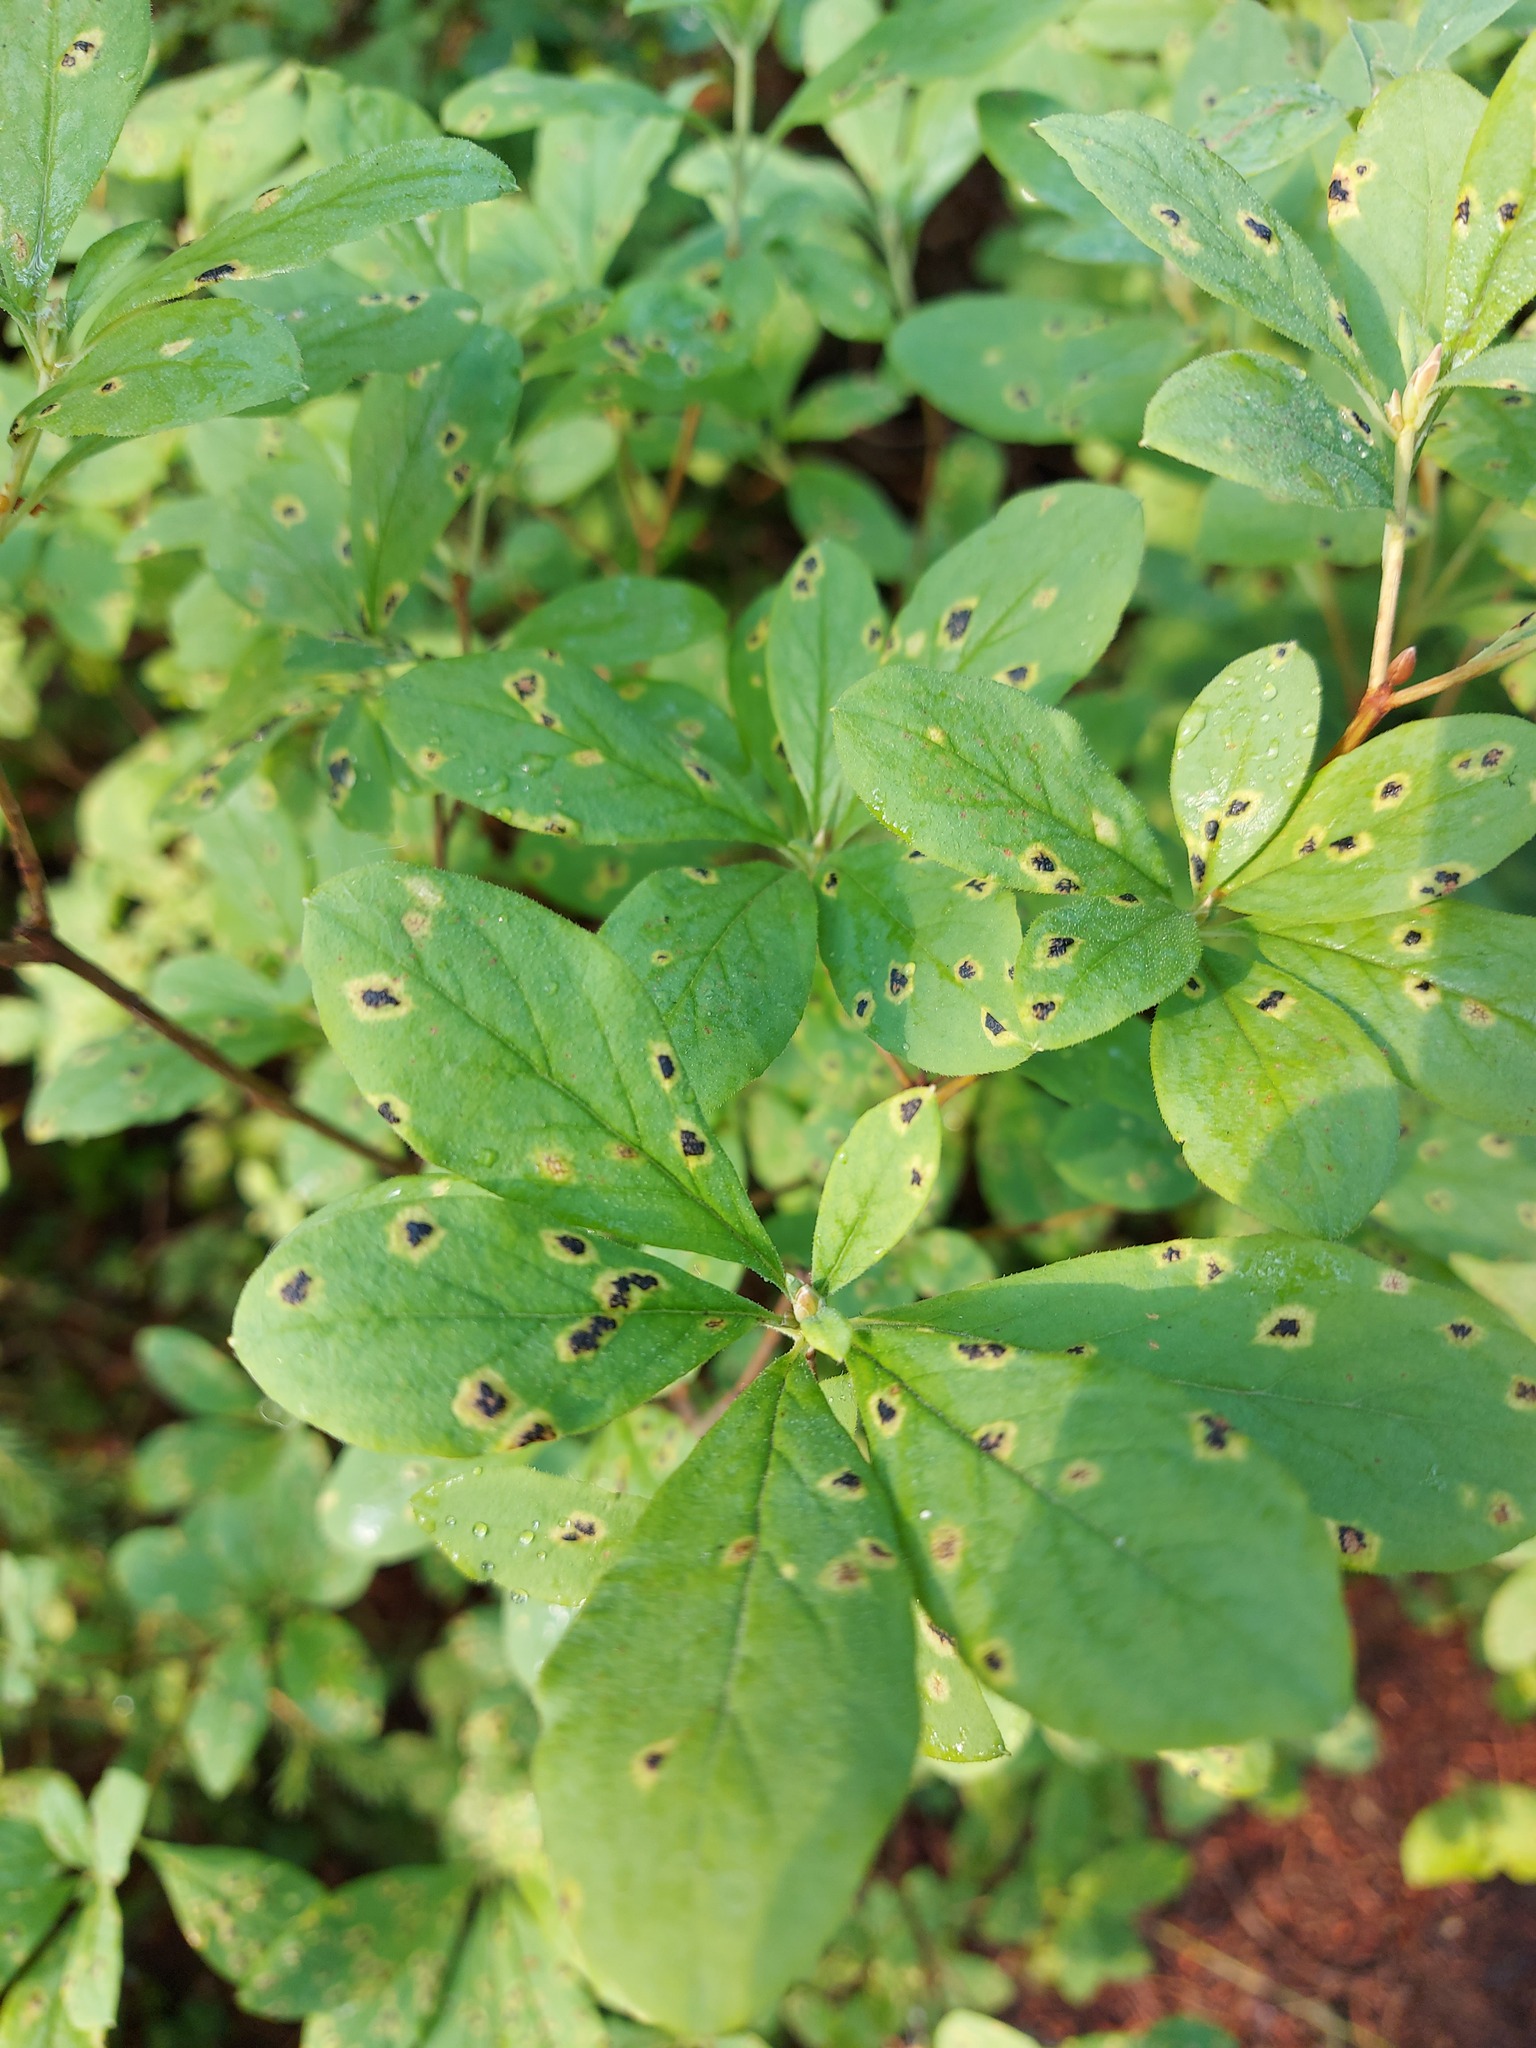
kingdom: Plantae
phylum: Tracheophyta
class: Magnoliopsida
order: Ericales
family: Ericaceae
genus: Rhododendron
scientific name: Rhododendron menziesii
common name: Pacific menziesia
